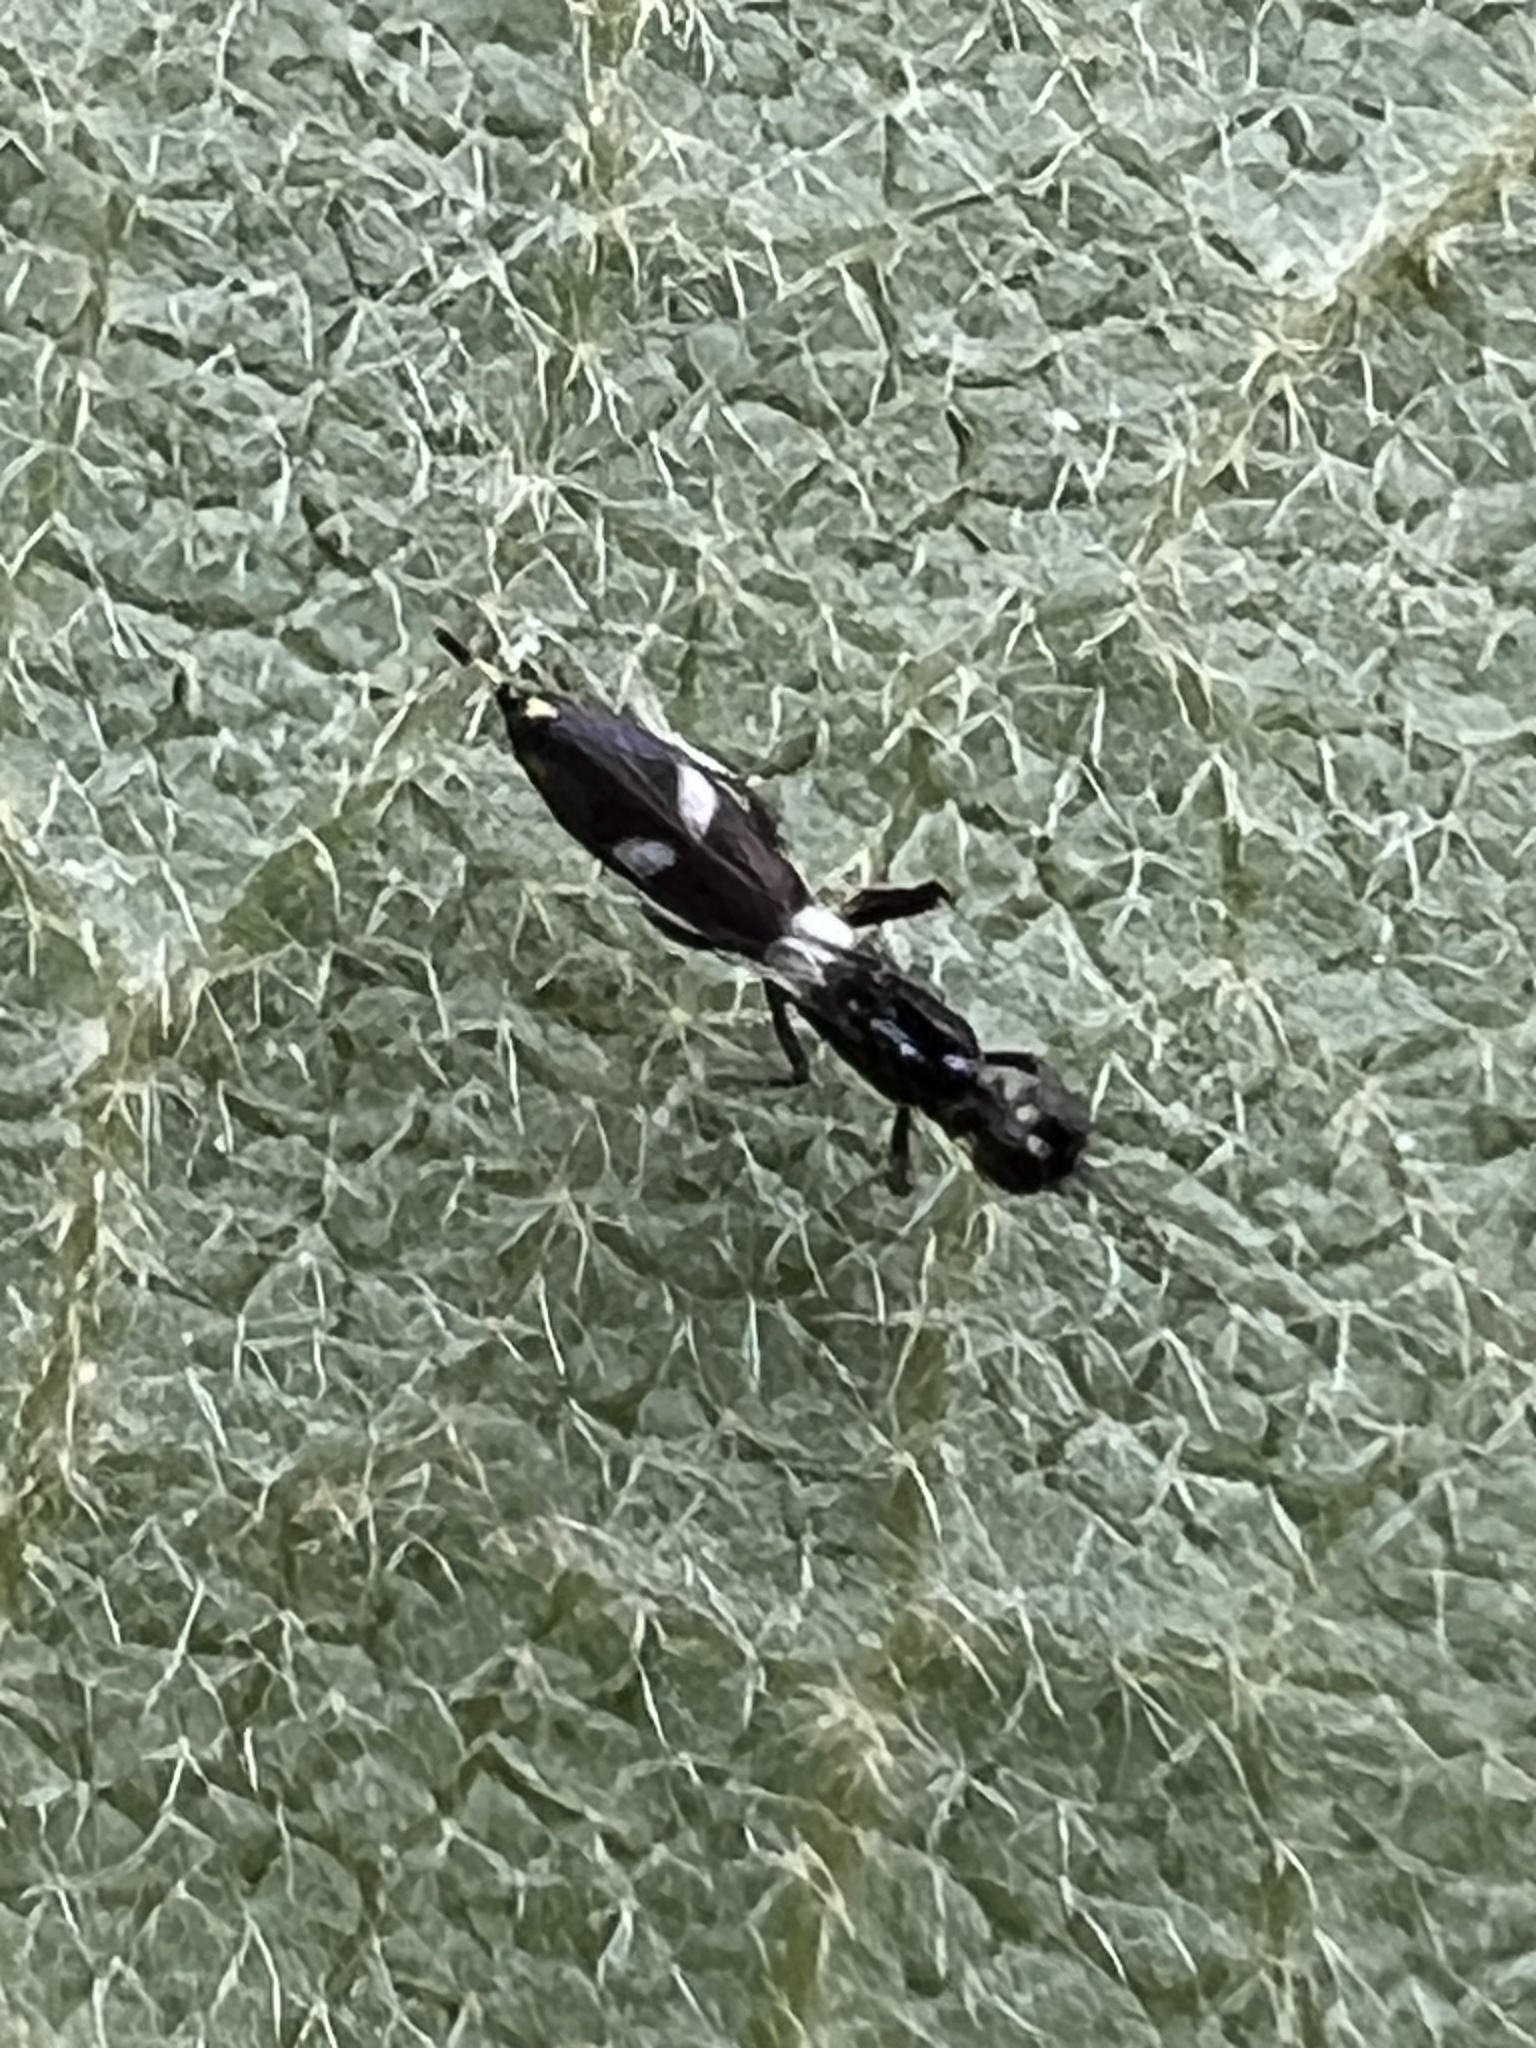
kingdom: Animalia
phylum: Arthropoda
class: Insecta
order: Hymenoptera
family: Eupelmidae
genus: Zaischnopsis
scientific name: Zaischnopsis coenotea
